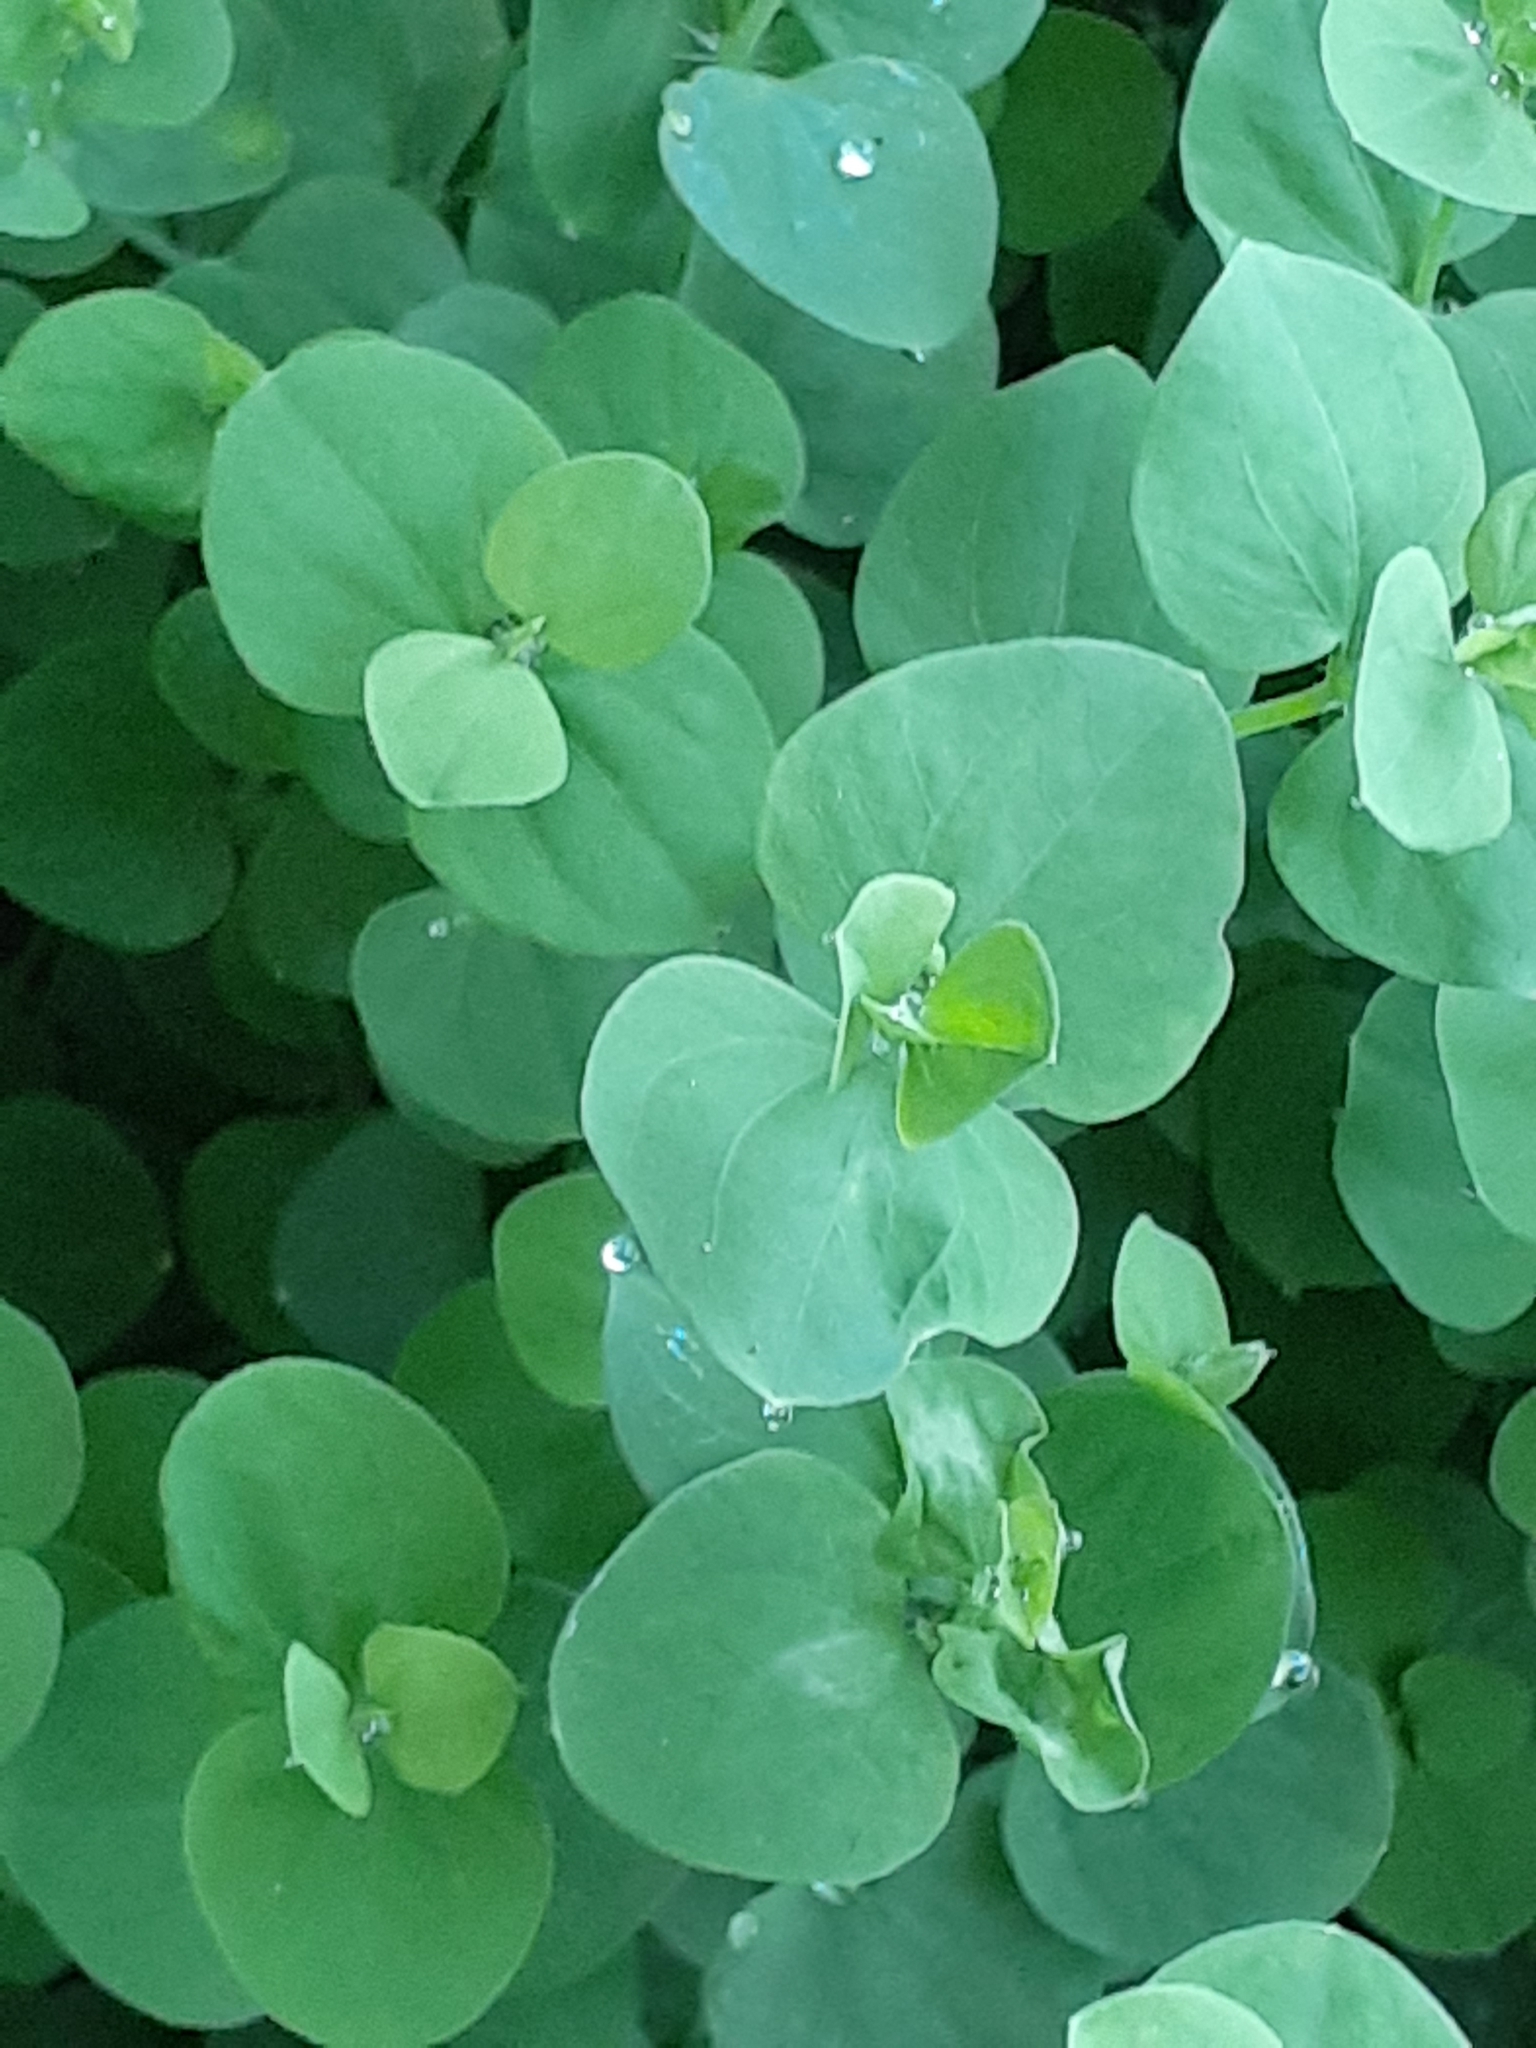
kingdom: Plantae
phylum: Tracheophyta
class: Magnoliopsida
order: Caryophyllales
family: Caryophyllaceae
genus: Drymaria
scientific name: Drymaria cordata
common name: Whitesnow
